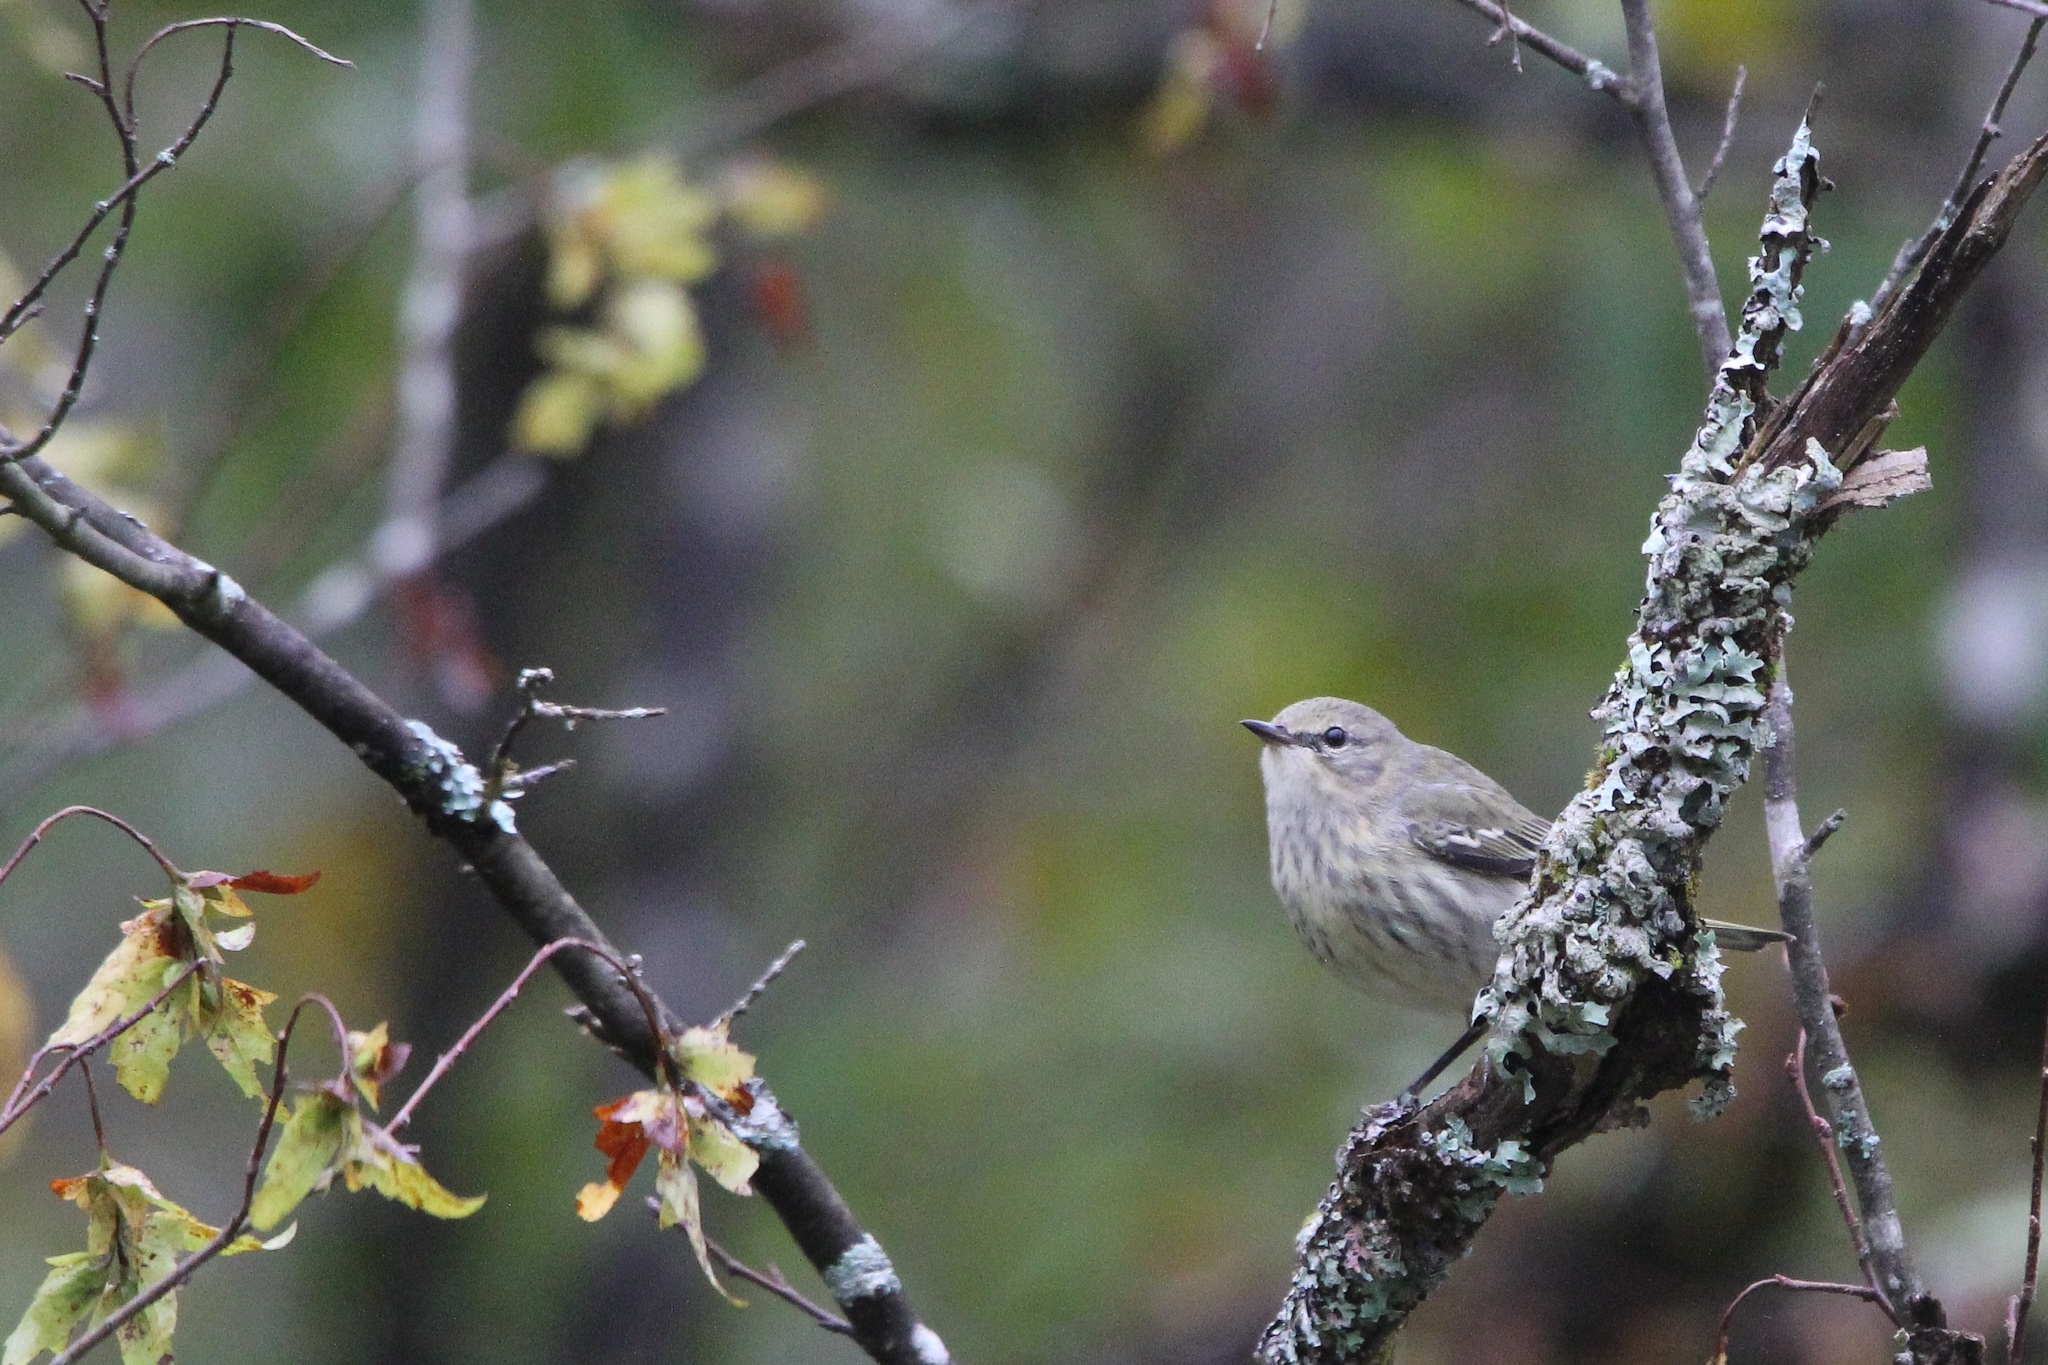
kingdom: Animalia
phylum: Chordata
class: Aves
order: Passeriformes
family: Parulidae
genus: Setophaga
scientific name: Setophaga tigrina
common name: Cape may warbler
